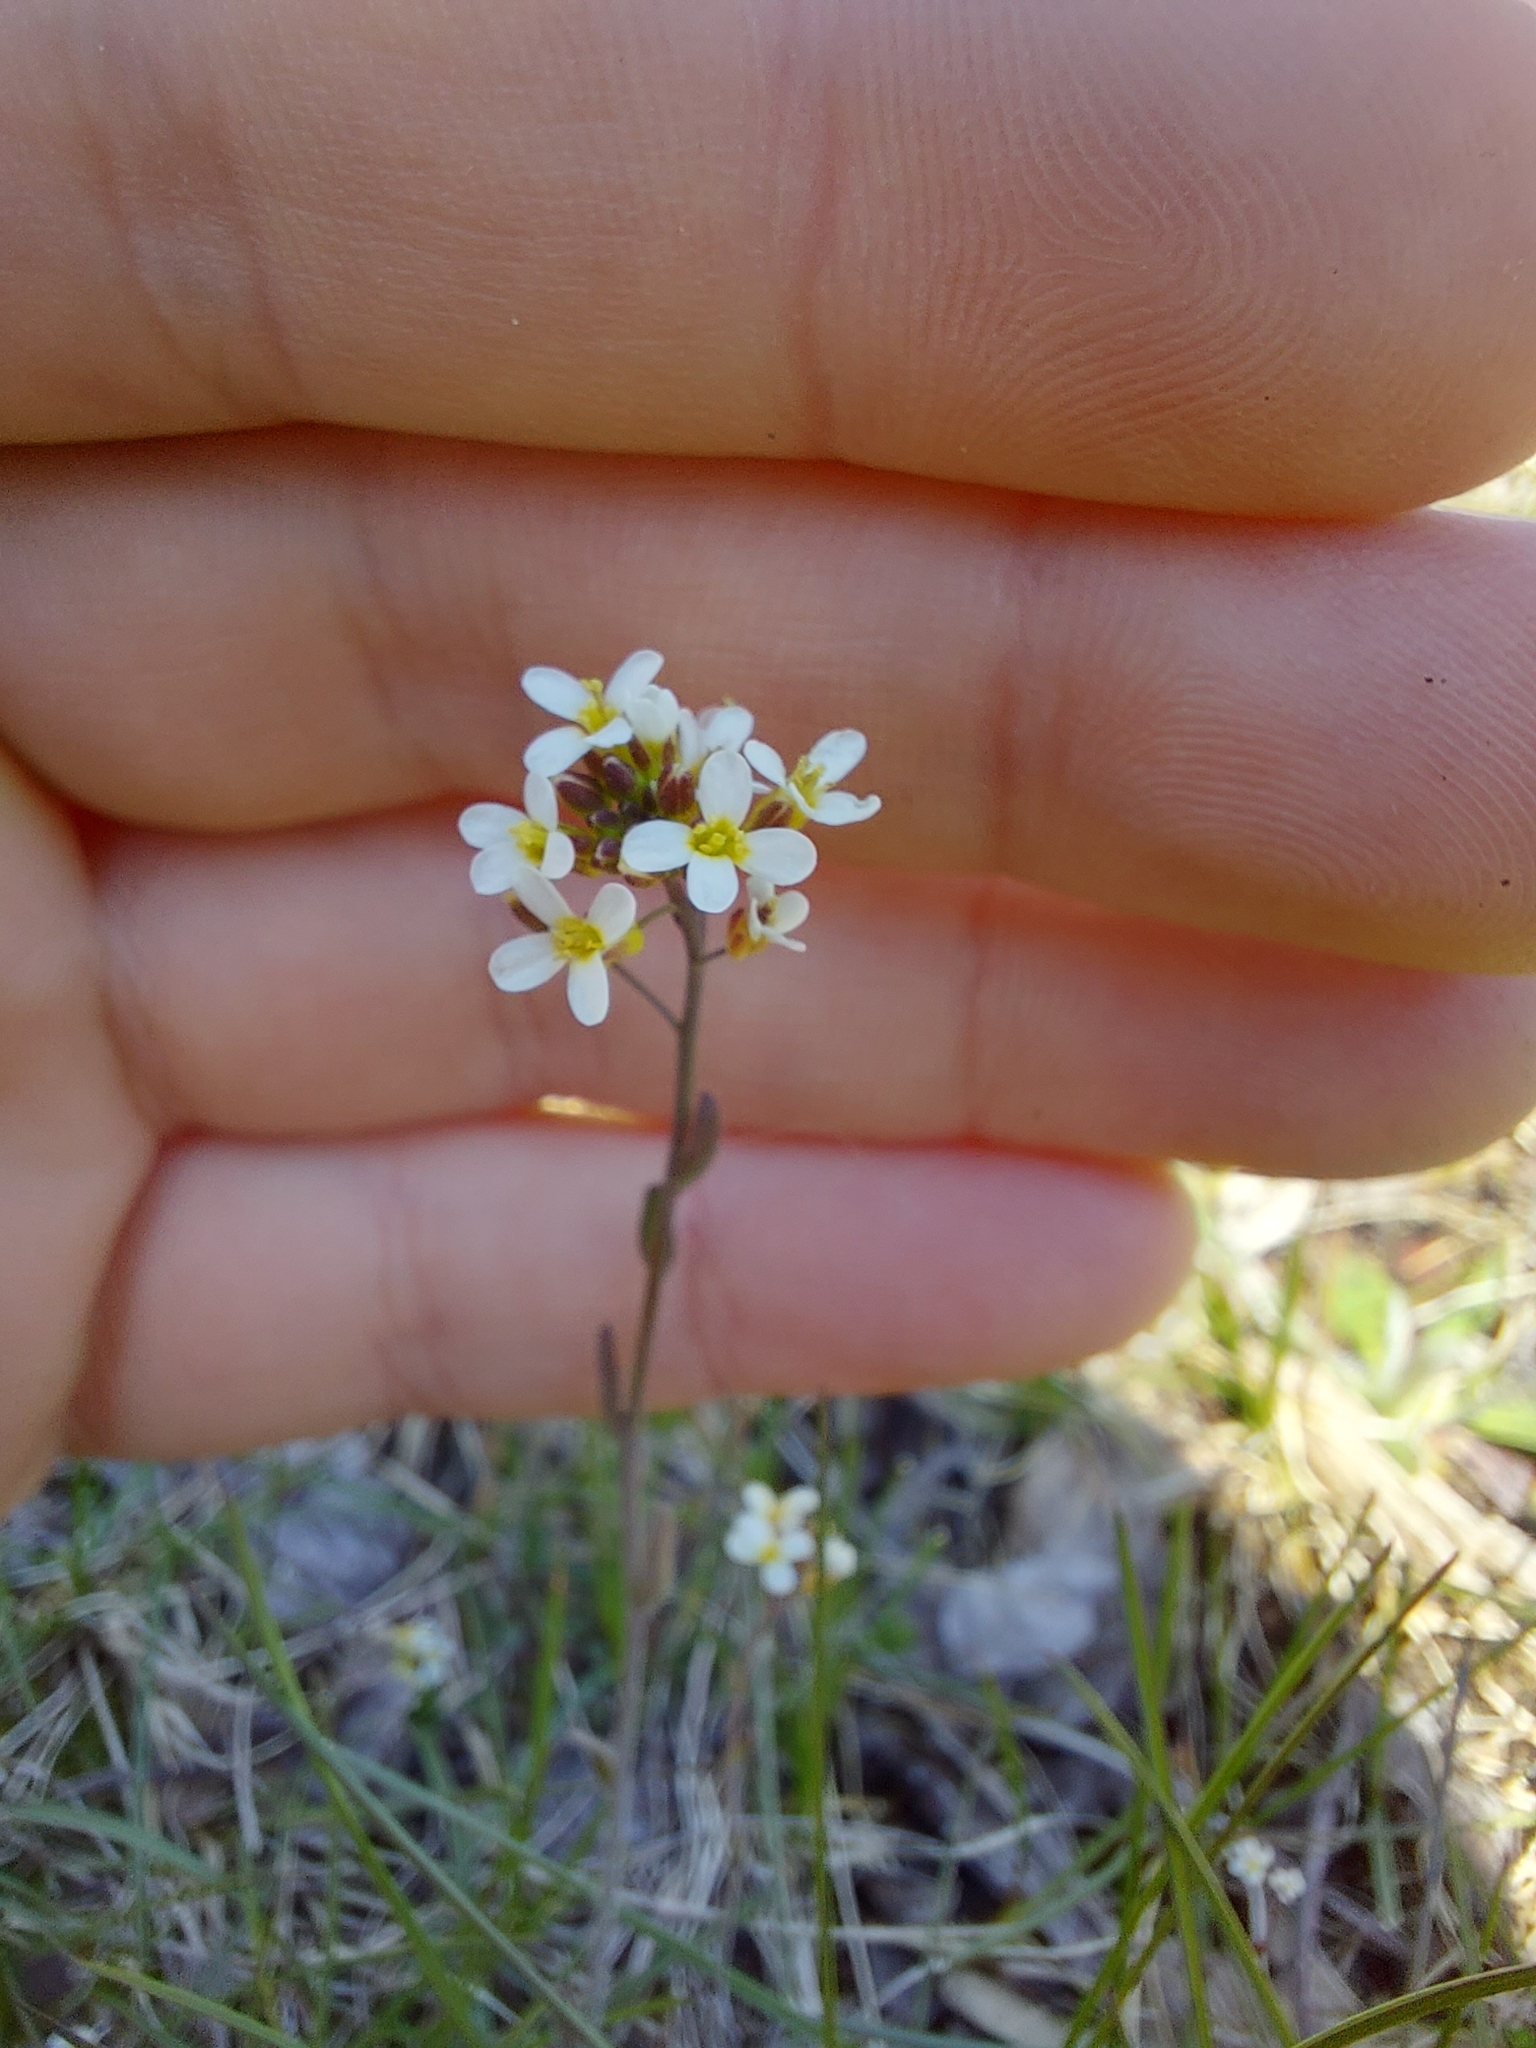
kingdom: Plantae
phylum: Tracheophyta
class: Magnoliopsida
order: Brassicales
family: Brassicaceae
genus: Arabidopsis
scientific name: Arabidopsis thaliana
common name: Thale cress
